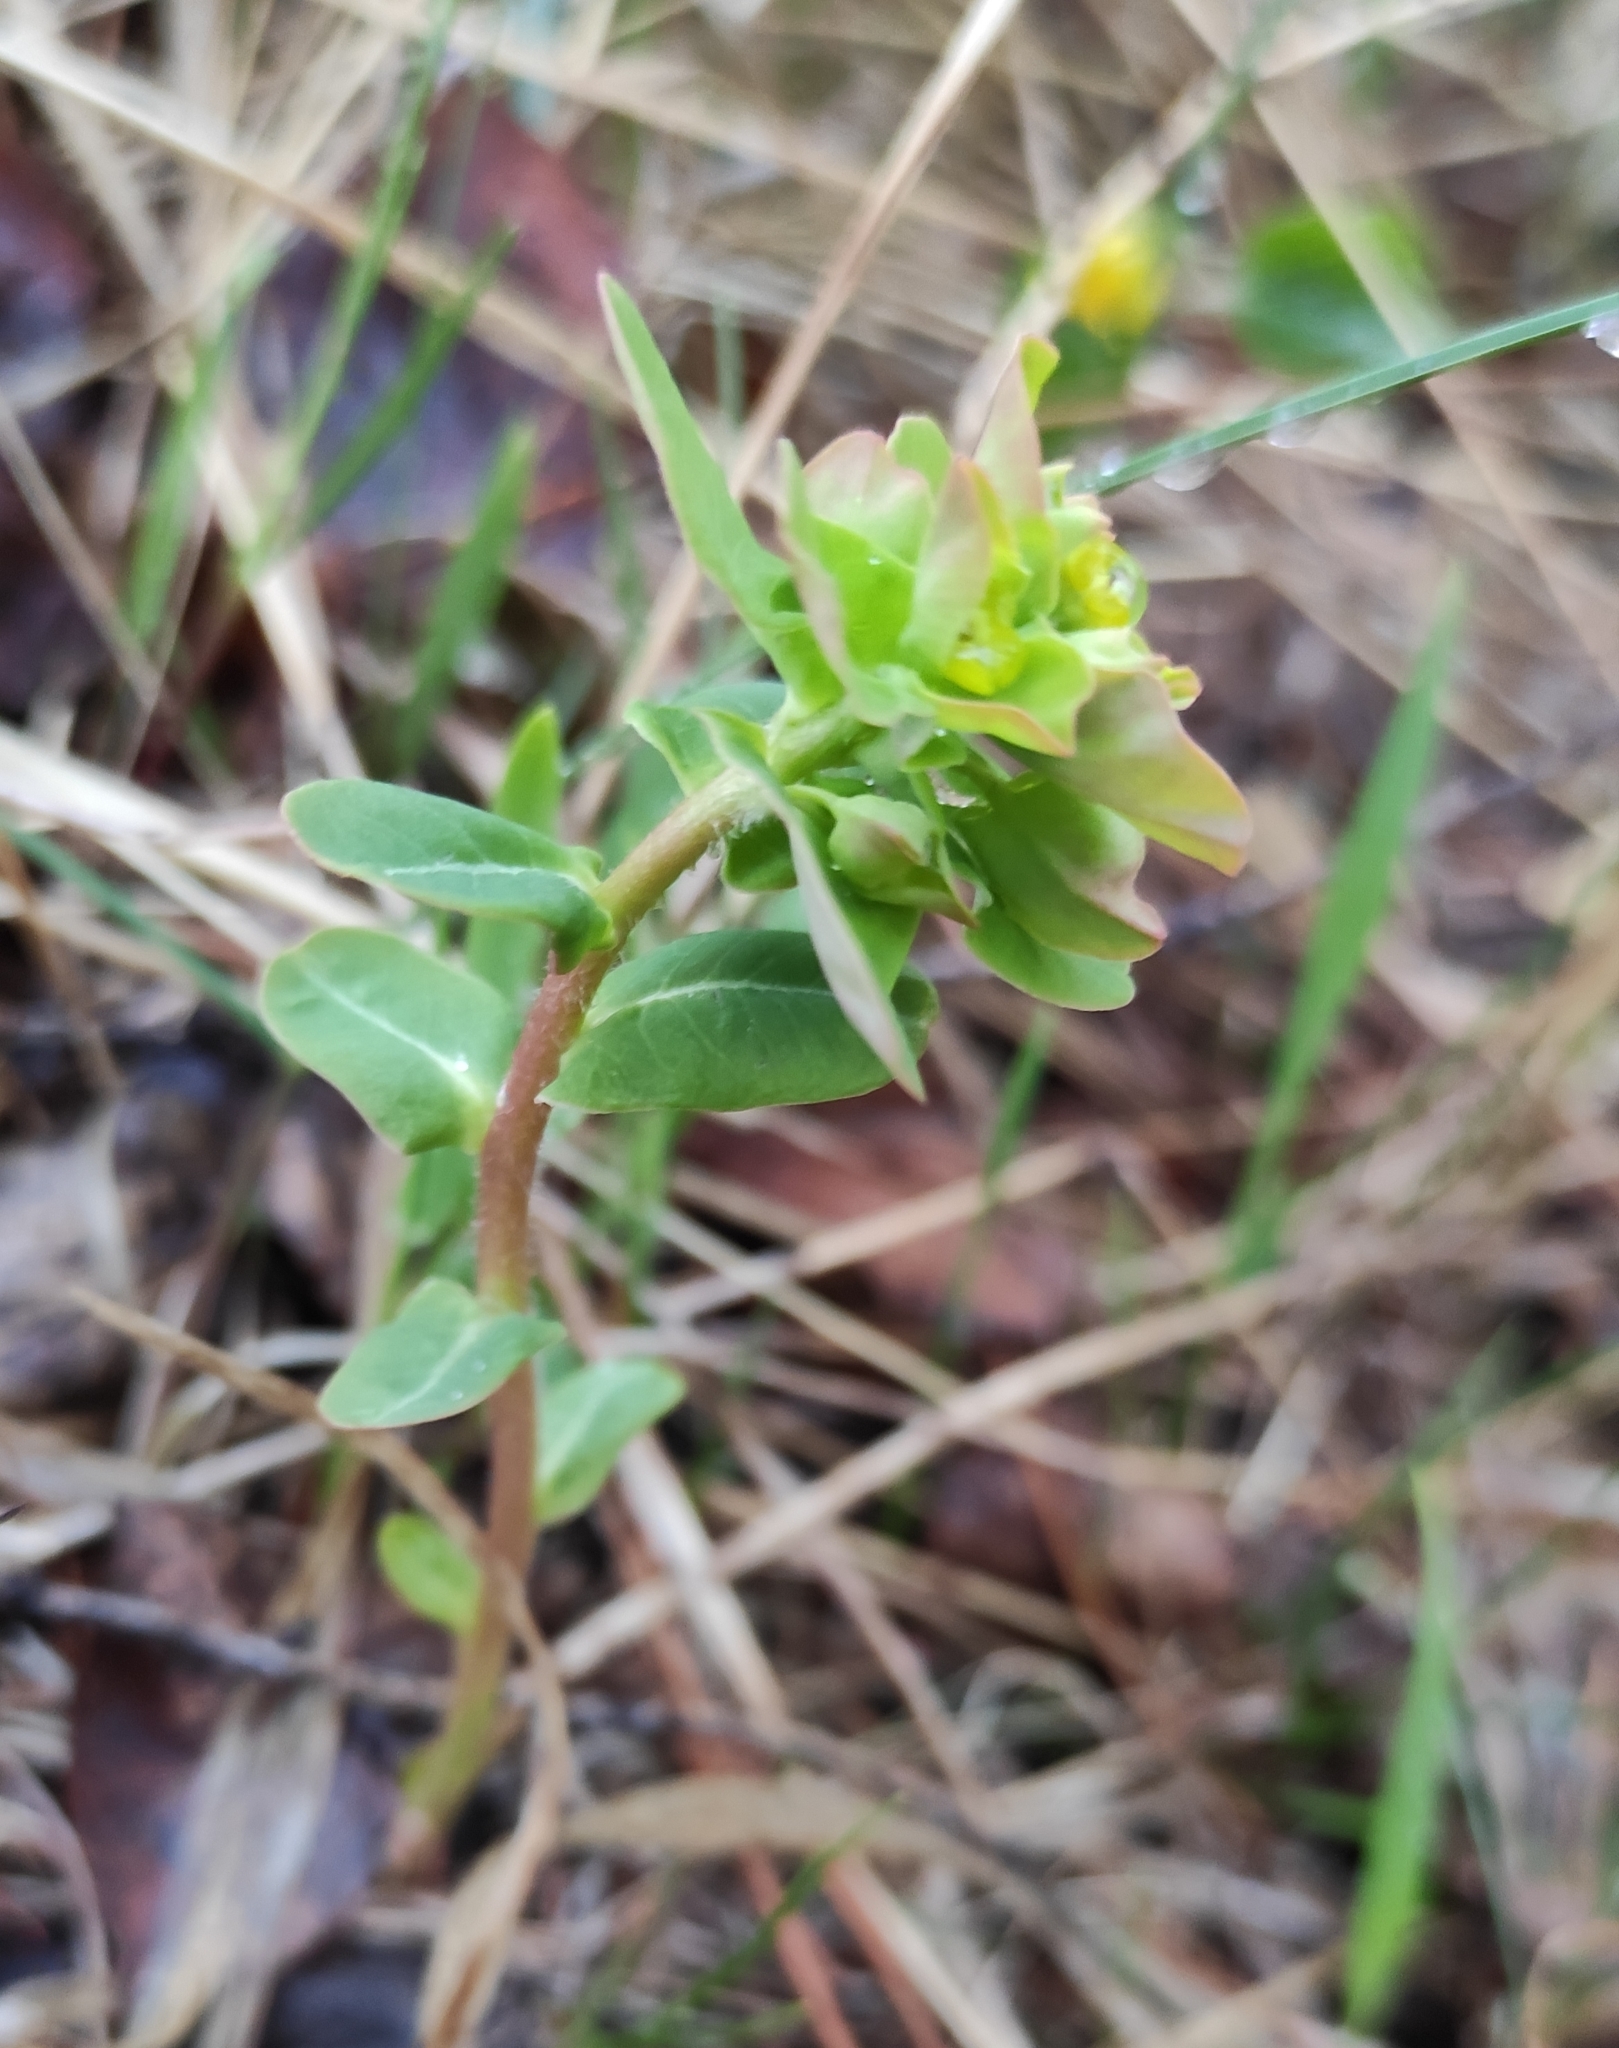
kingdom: Plantae
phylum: Tracheophyta
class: Magnoliopsida
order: Malpighiales
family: Euphorbiaceae
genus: Euphorbia
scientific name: Euphorbia jenisseiensis
